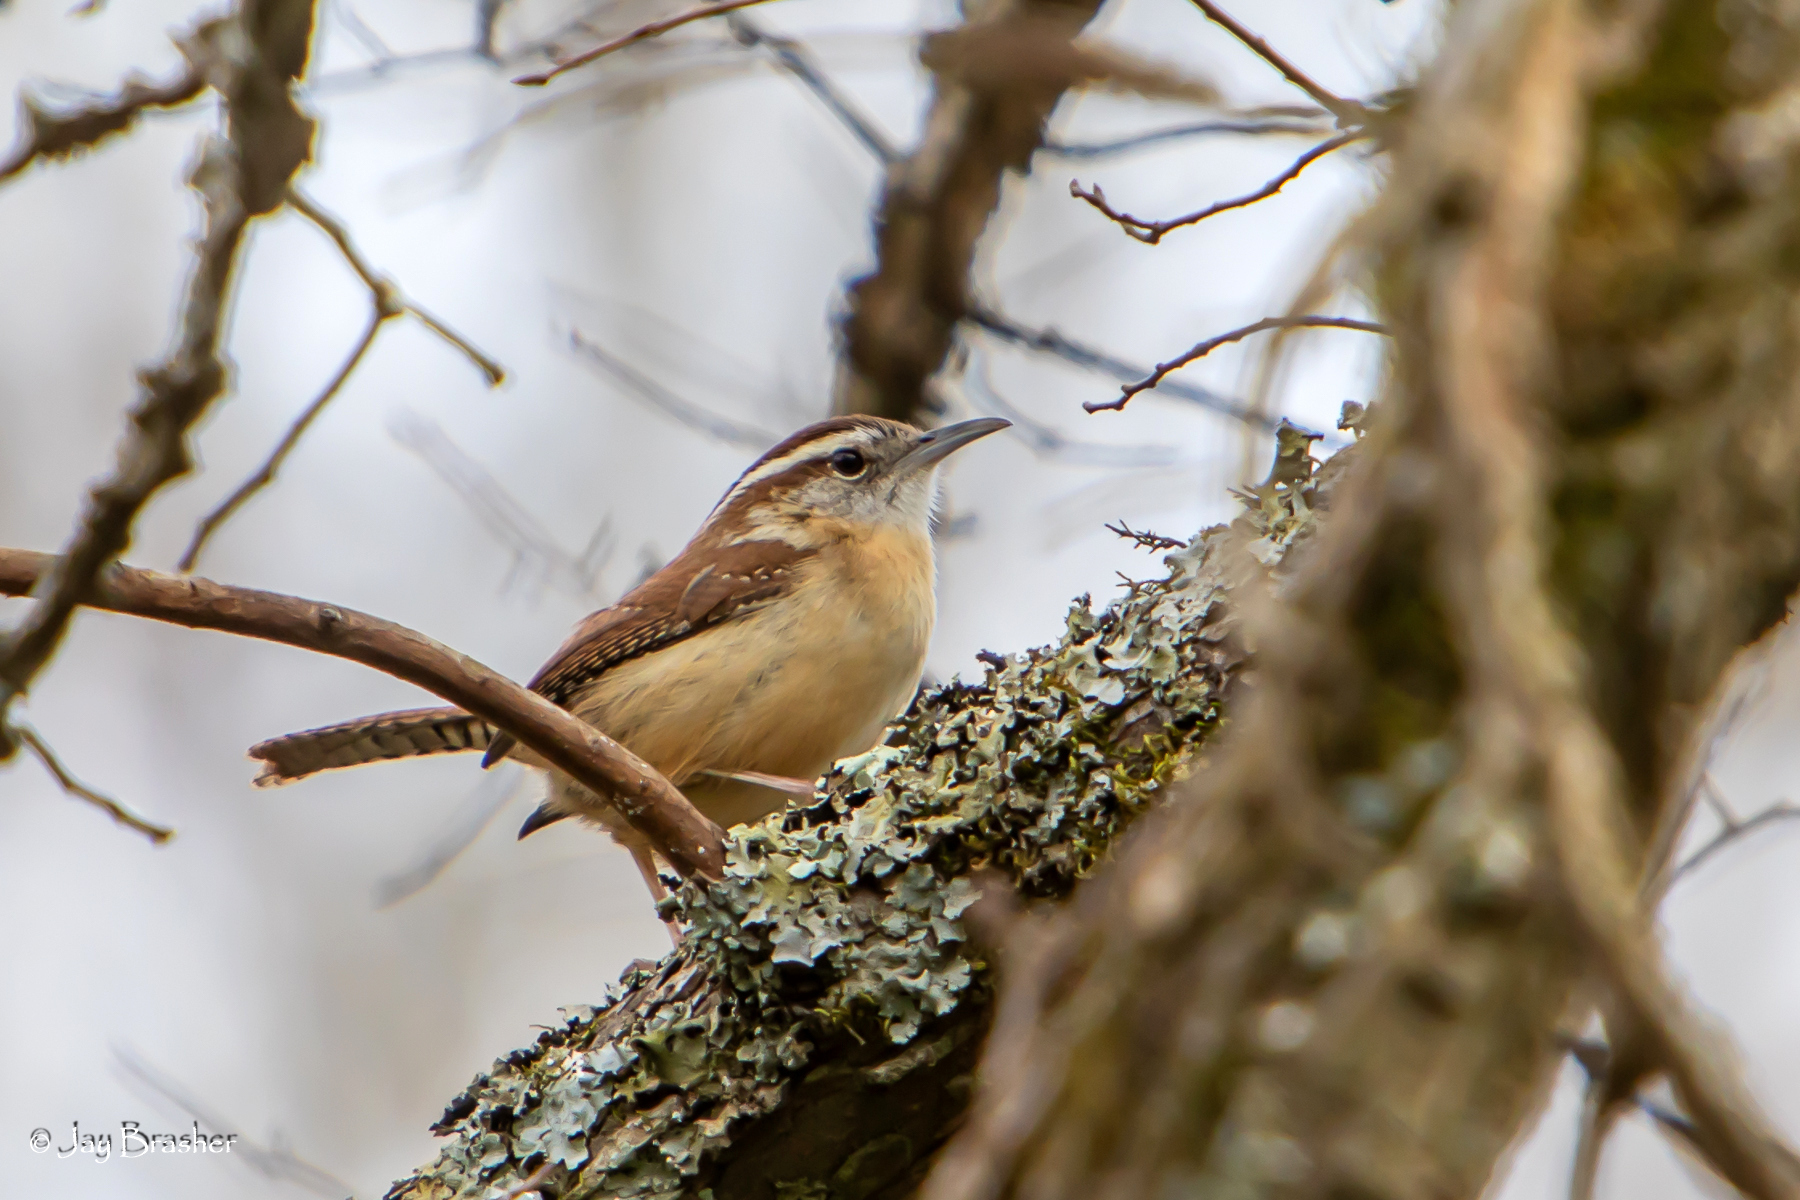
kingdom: Animalia
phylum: Chordata
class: Aves
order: Passeriformes
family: Troglodytidae
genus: Thryothorus
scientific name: Thryothorus ludovicianus
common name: Carolina wren
